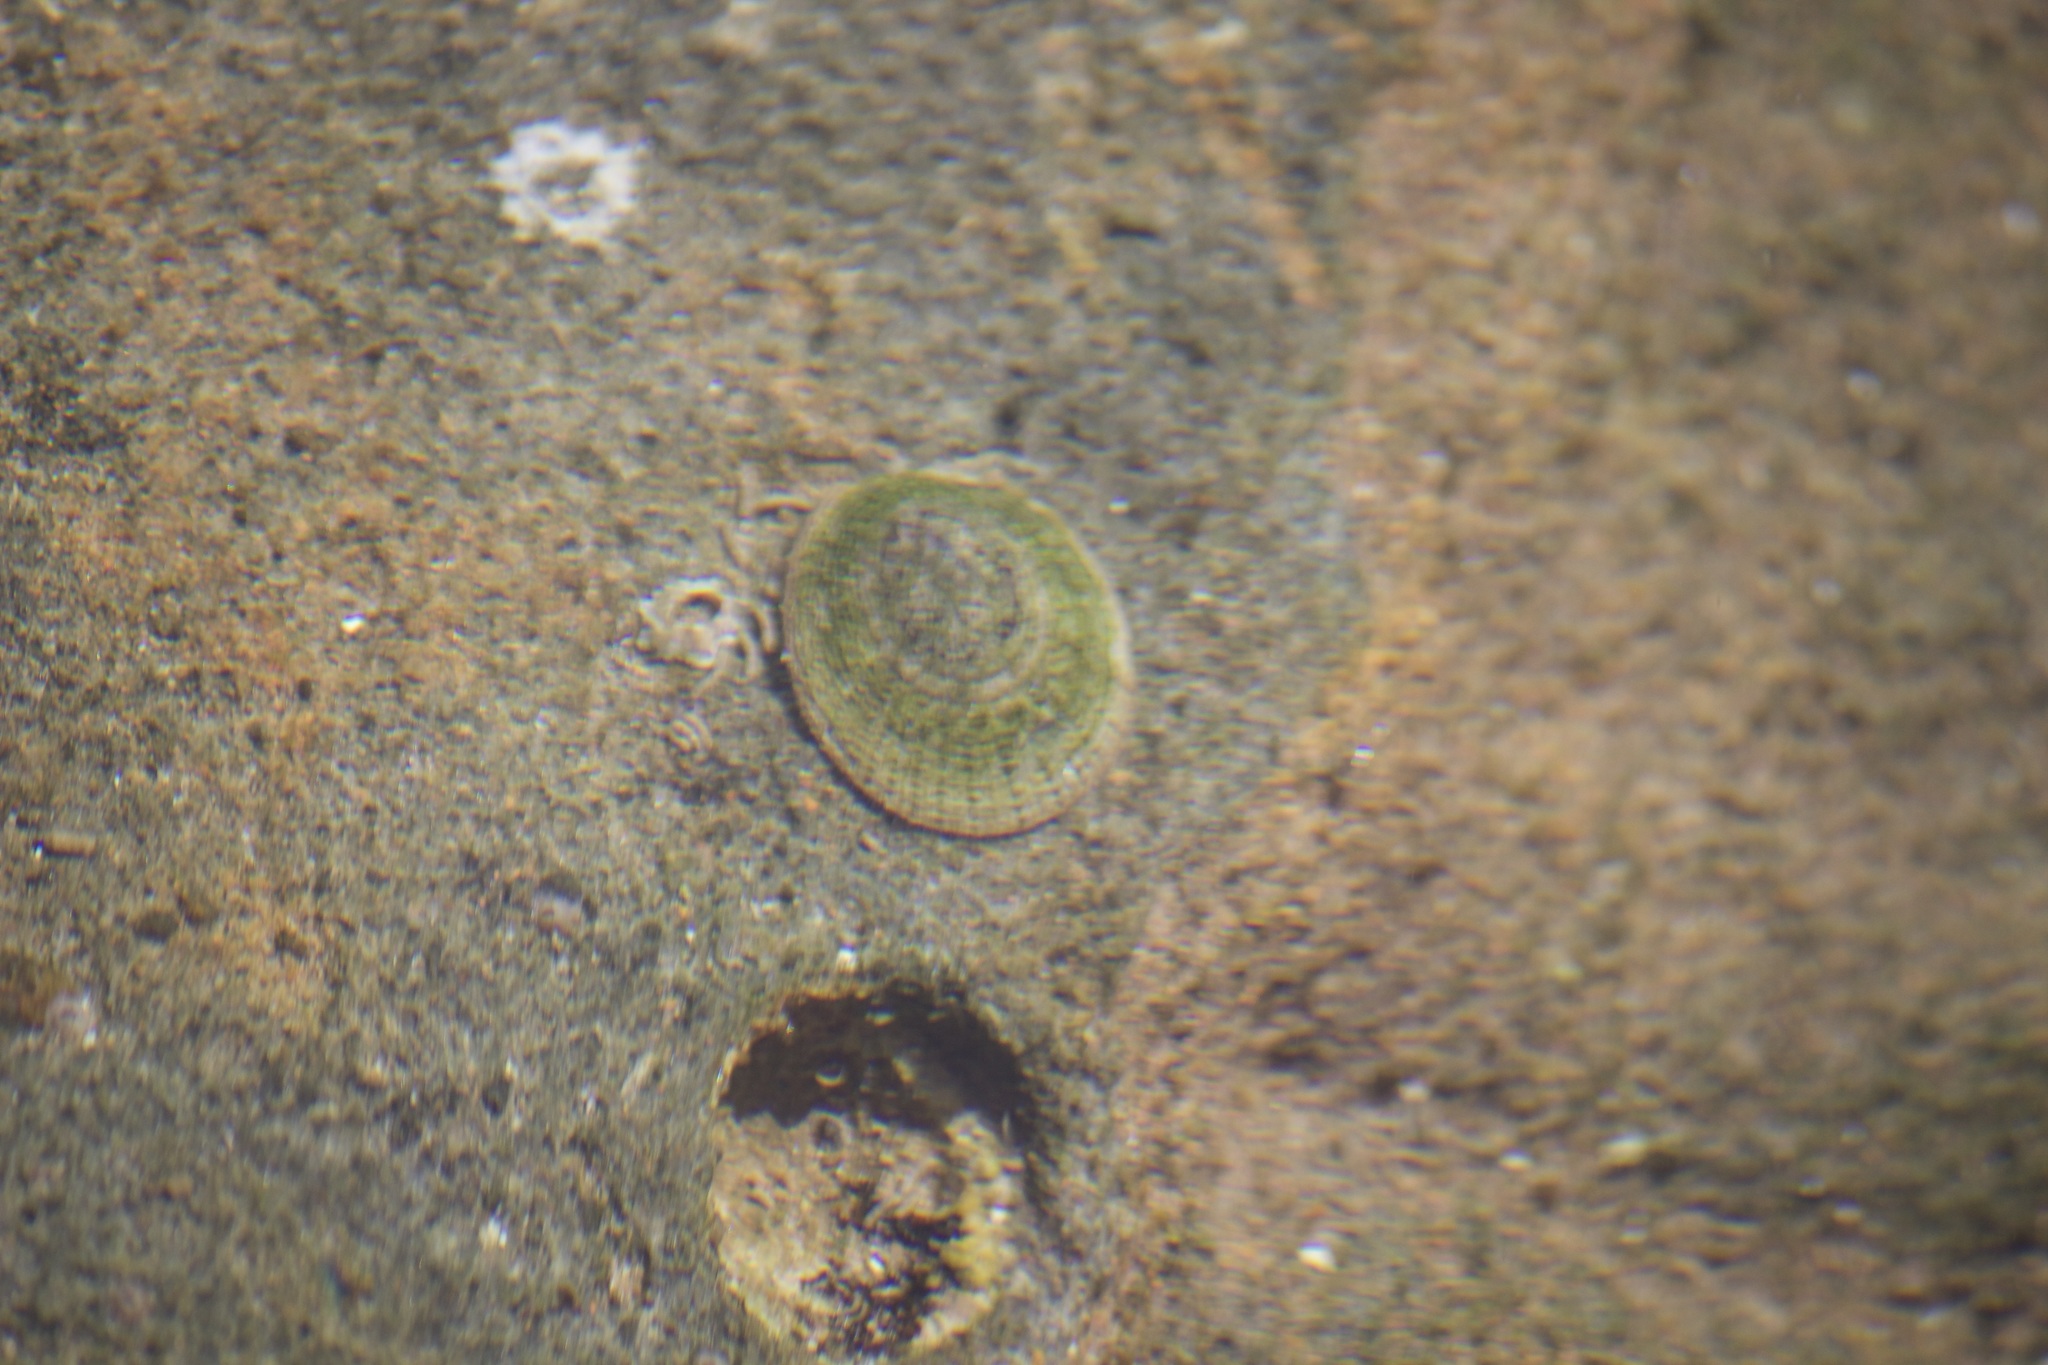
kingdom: Animalia
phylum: Mollusca
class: Gastropoda
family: Lottiidae
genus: Lottia
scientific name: Lottia limatula
